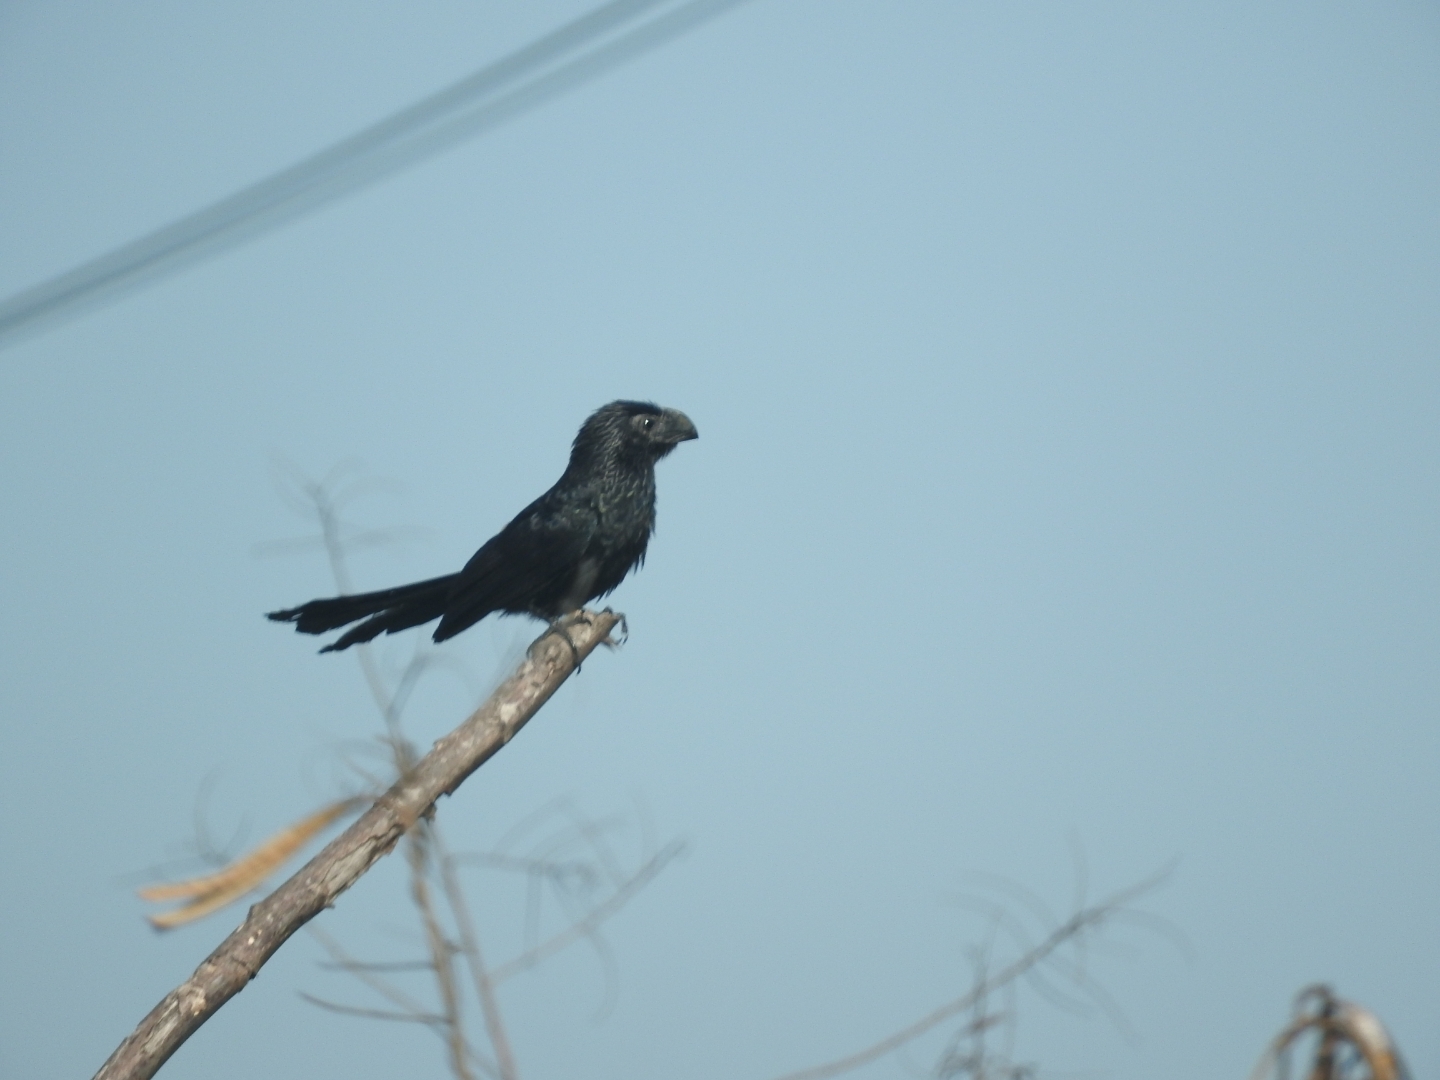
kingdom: Animalia
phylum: Chordata
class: Aves
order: Cuculiformes
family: Cuculidae
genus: Crotophaga
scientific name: Crotophaga sulcirostris
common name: Groove-billed ani
